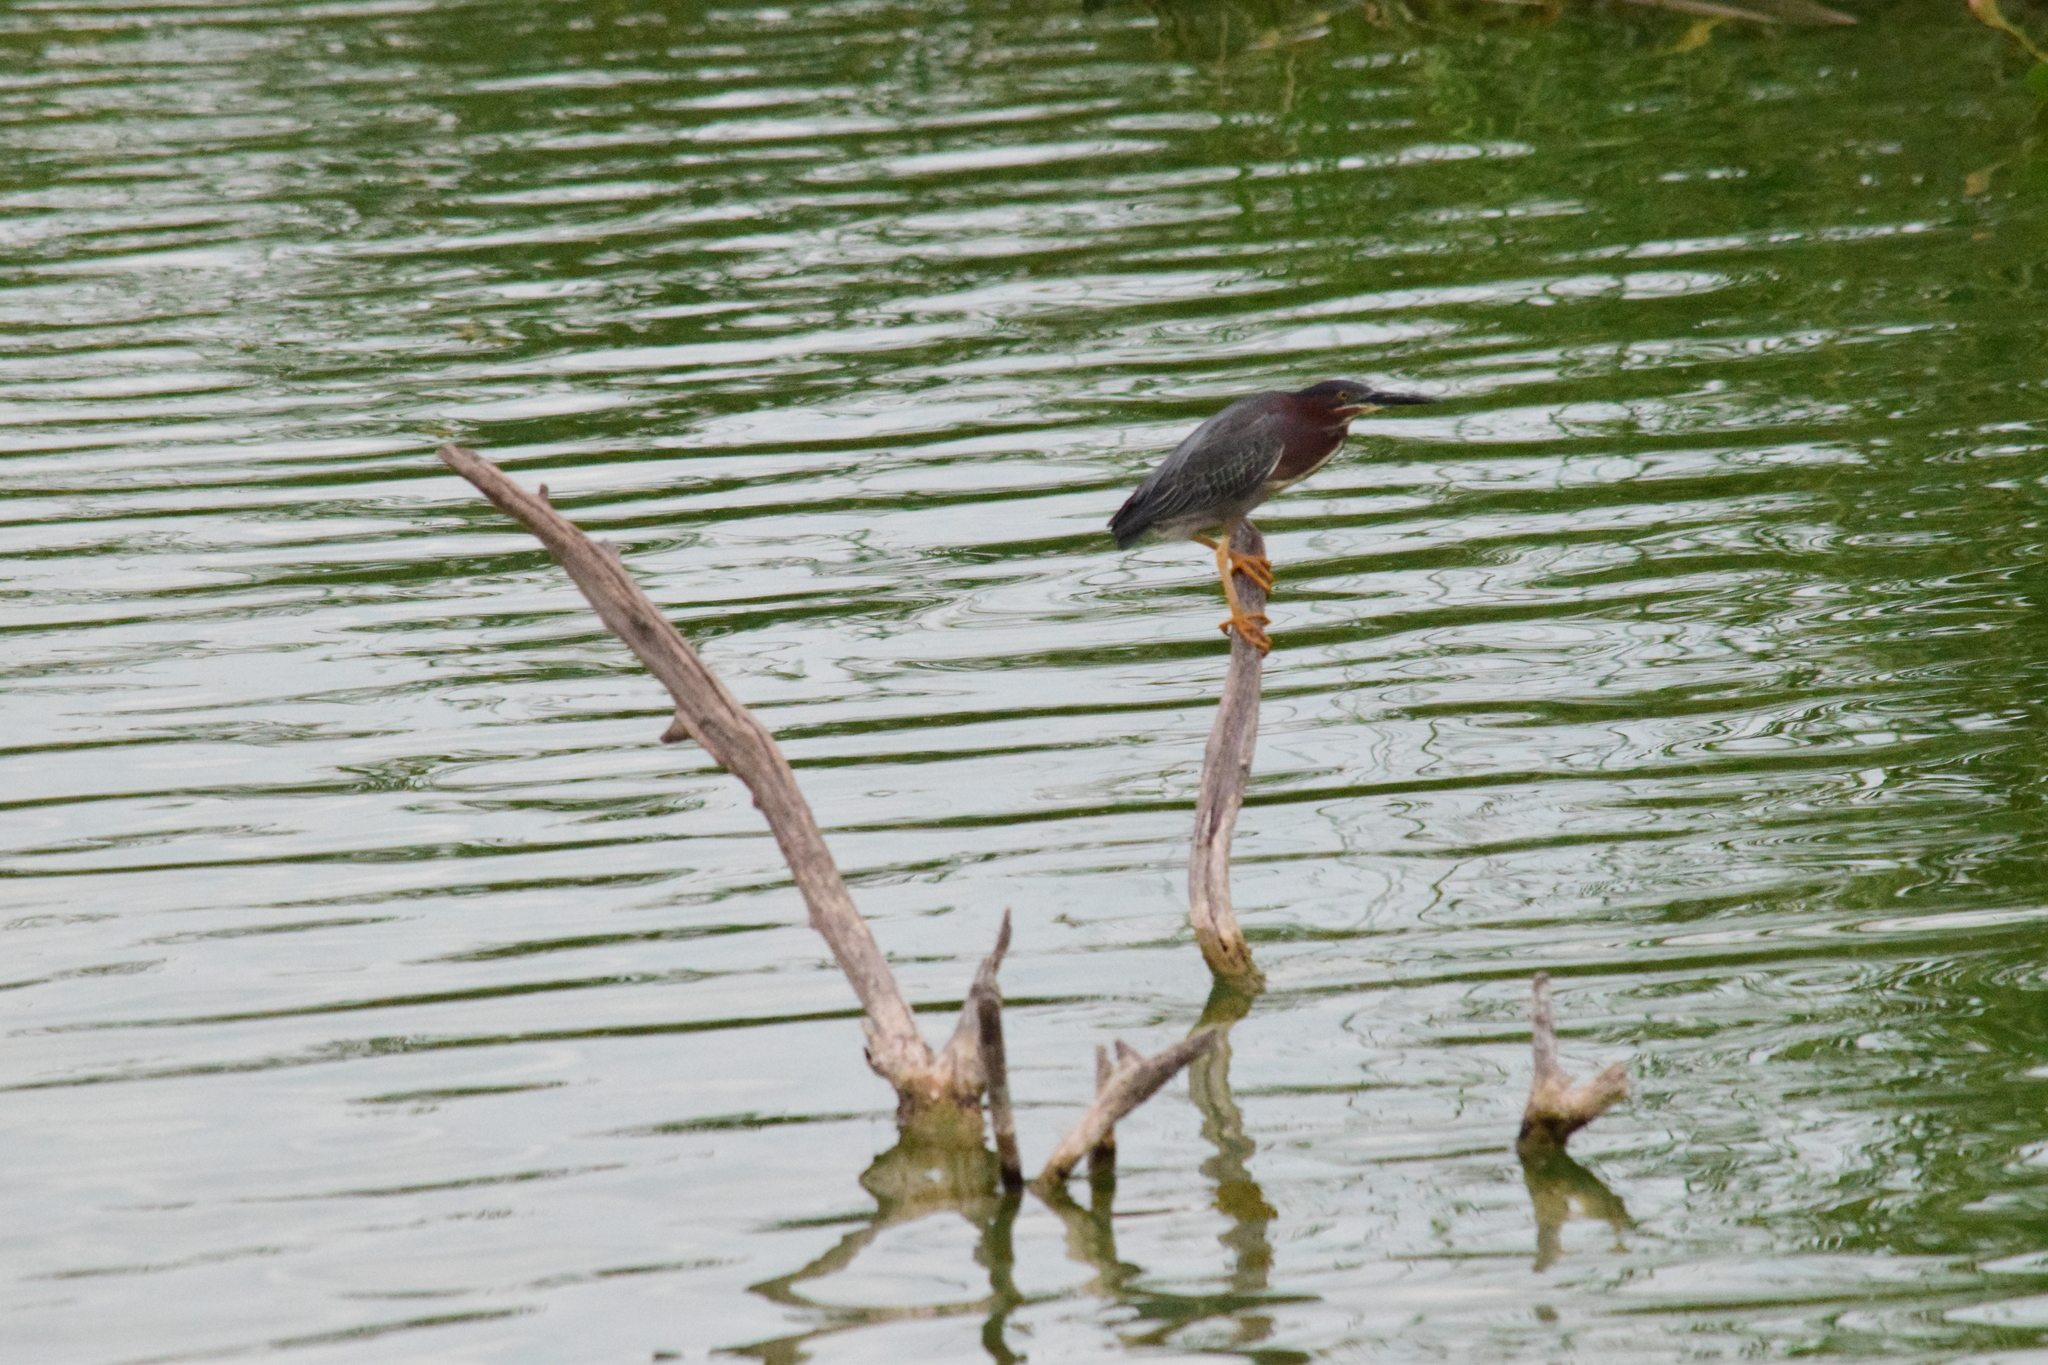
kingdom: Animalia
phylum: Chordata
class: Aves
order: Pelecaniformes
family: Ardeidae
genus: Butorides
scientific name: Butorides virescens
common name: Green heron
